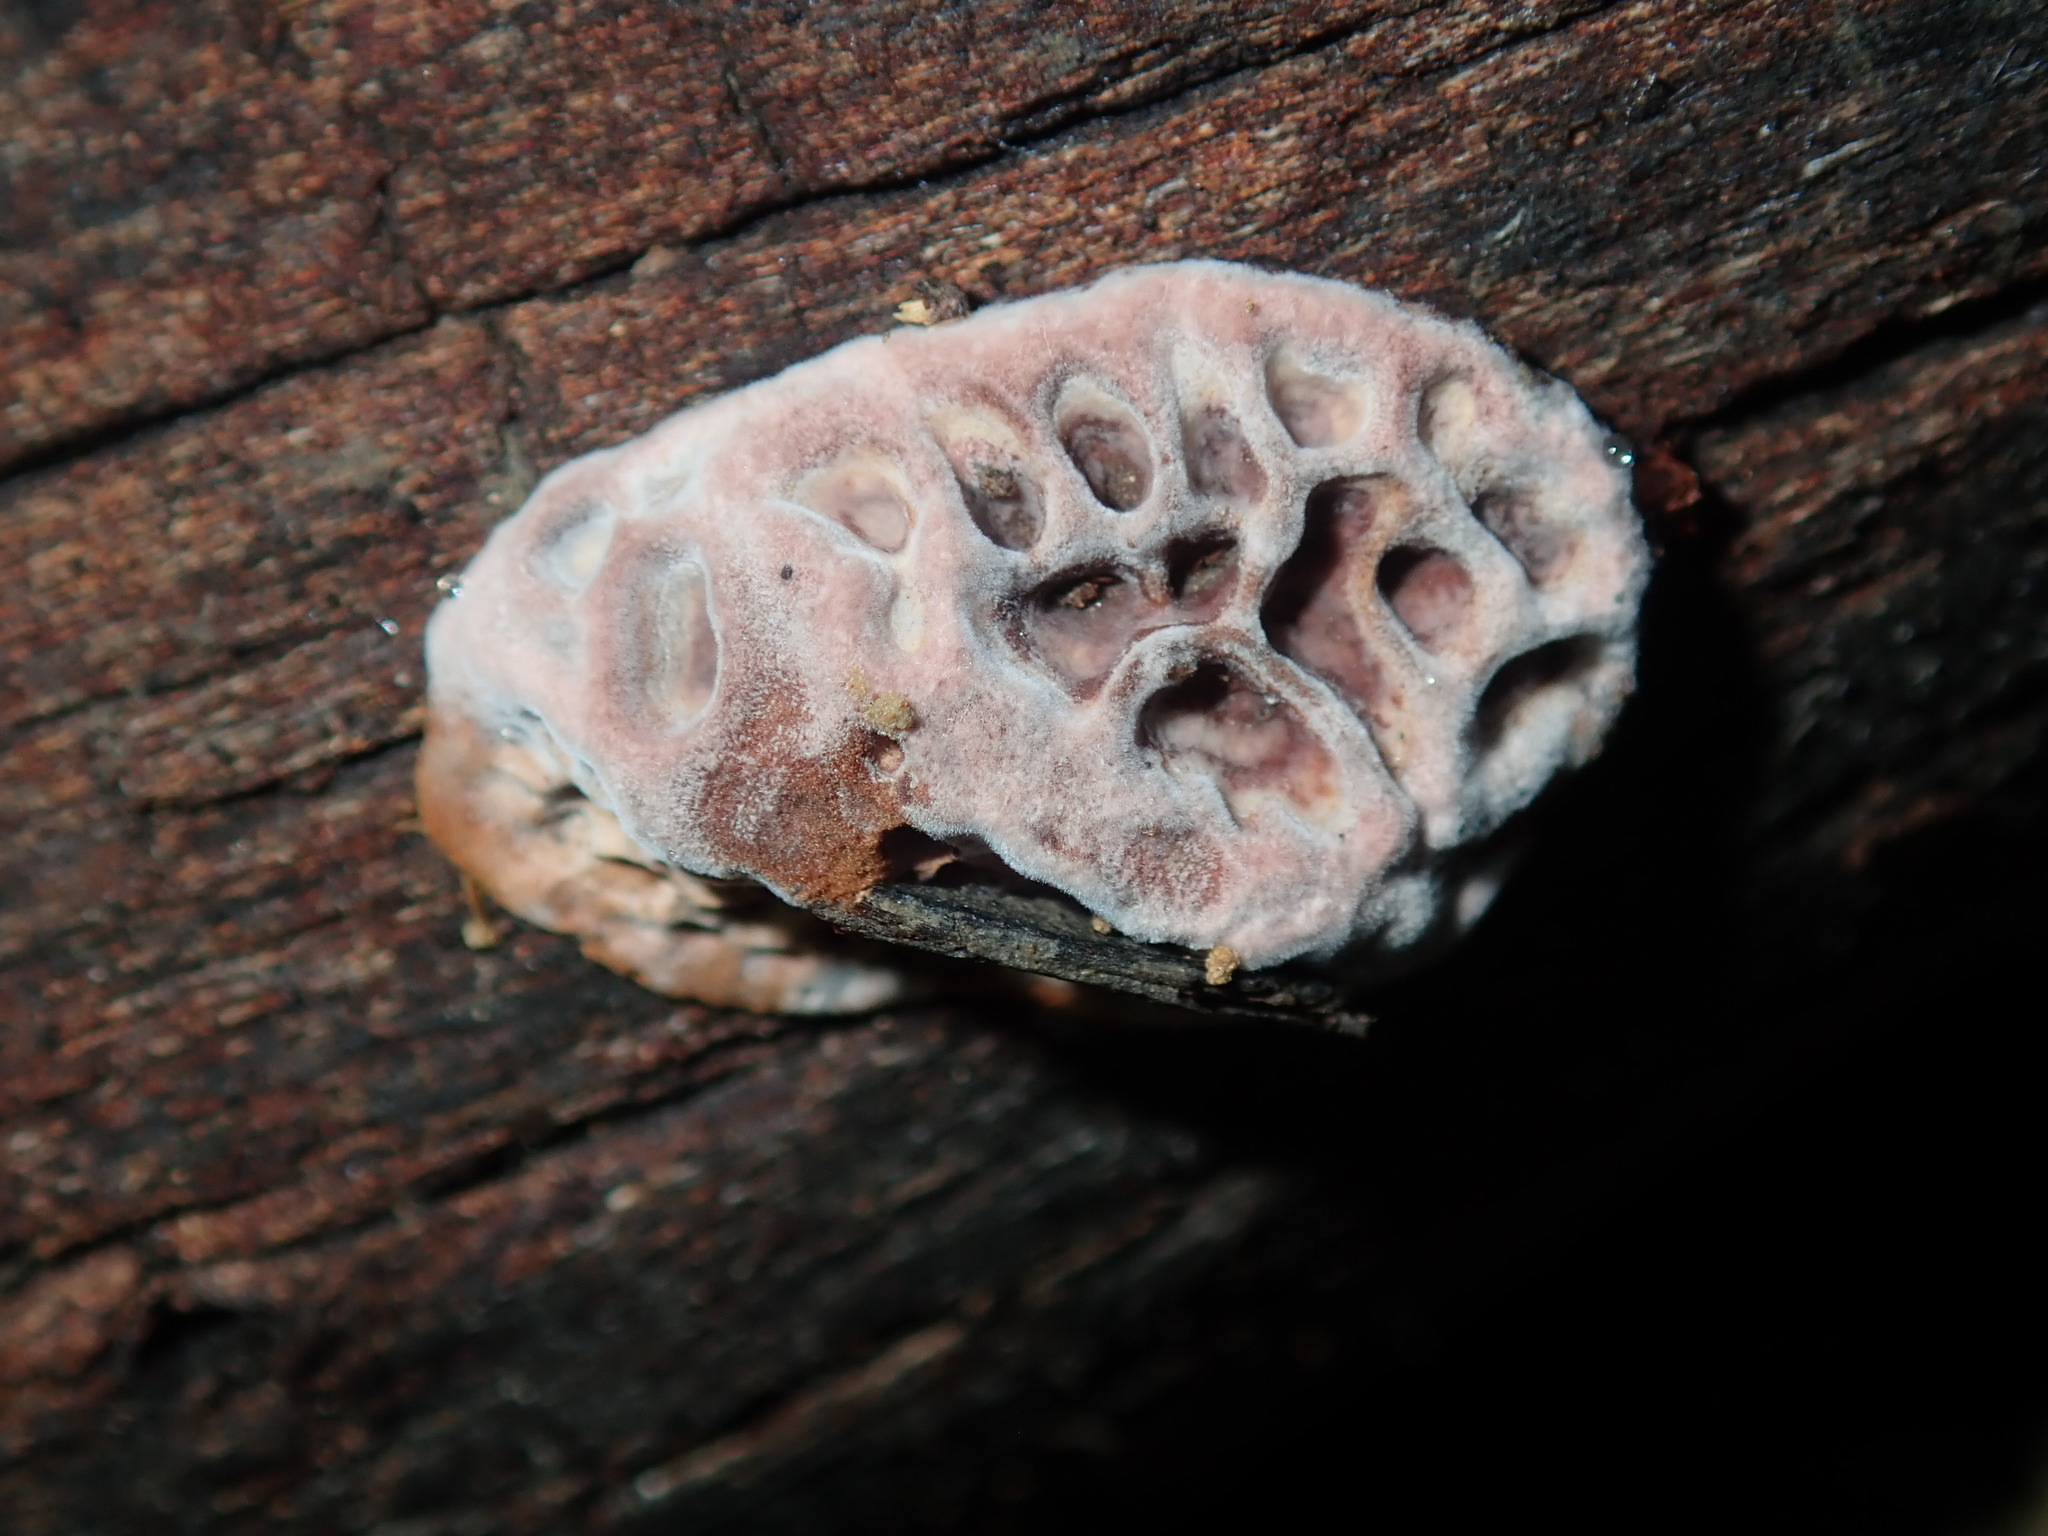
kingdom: Fungi
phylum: Basidiomycota
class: Agaricomycetes
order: Polyporales
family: Polyporaceae
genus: Hexagonia
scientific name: Hexagonia vesparia
